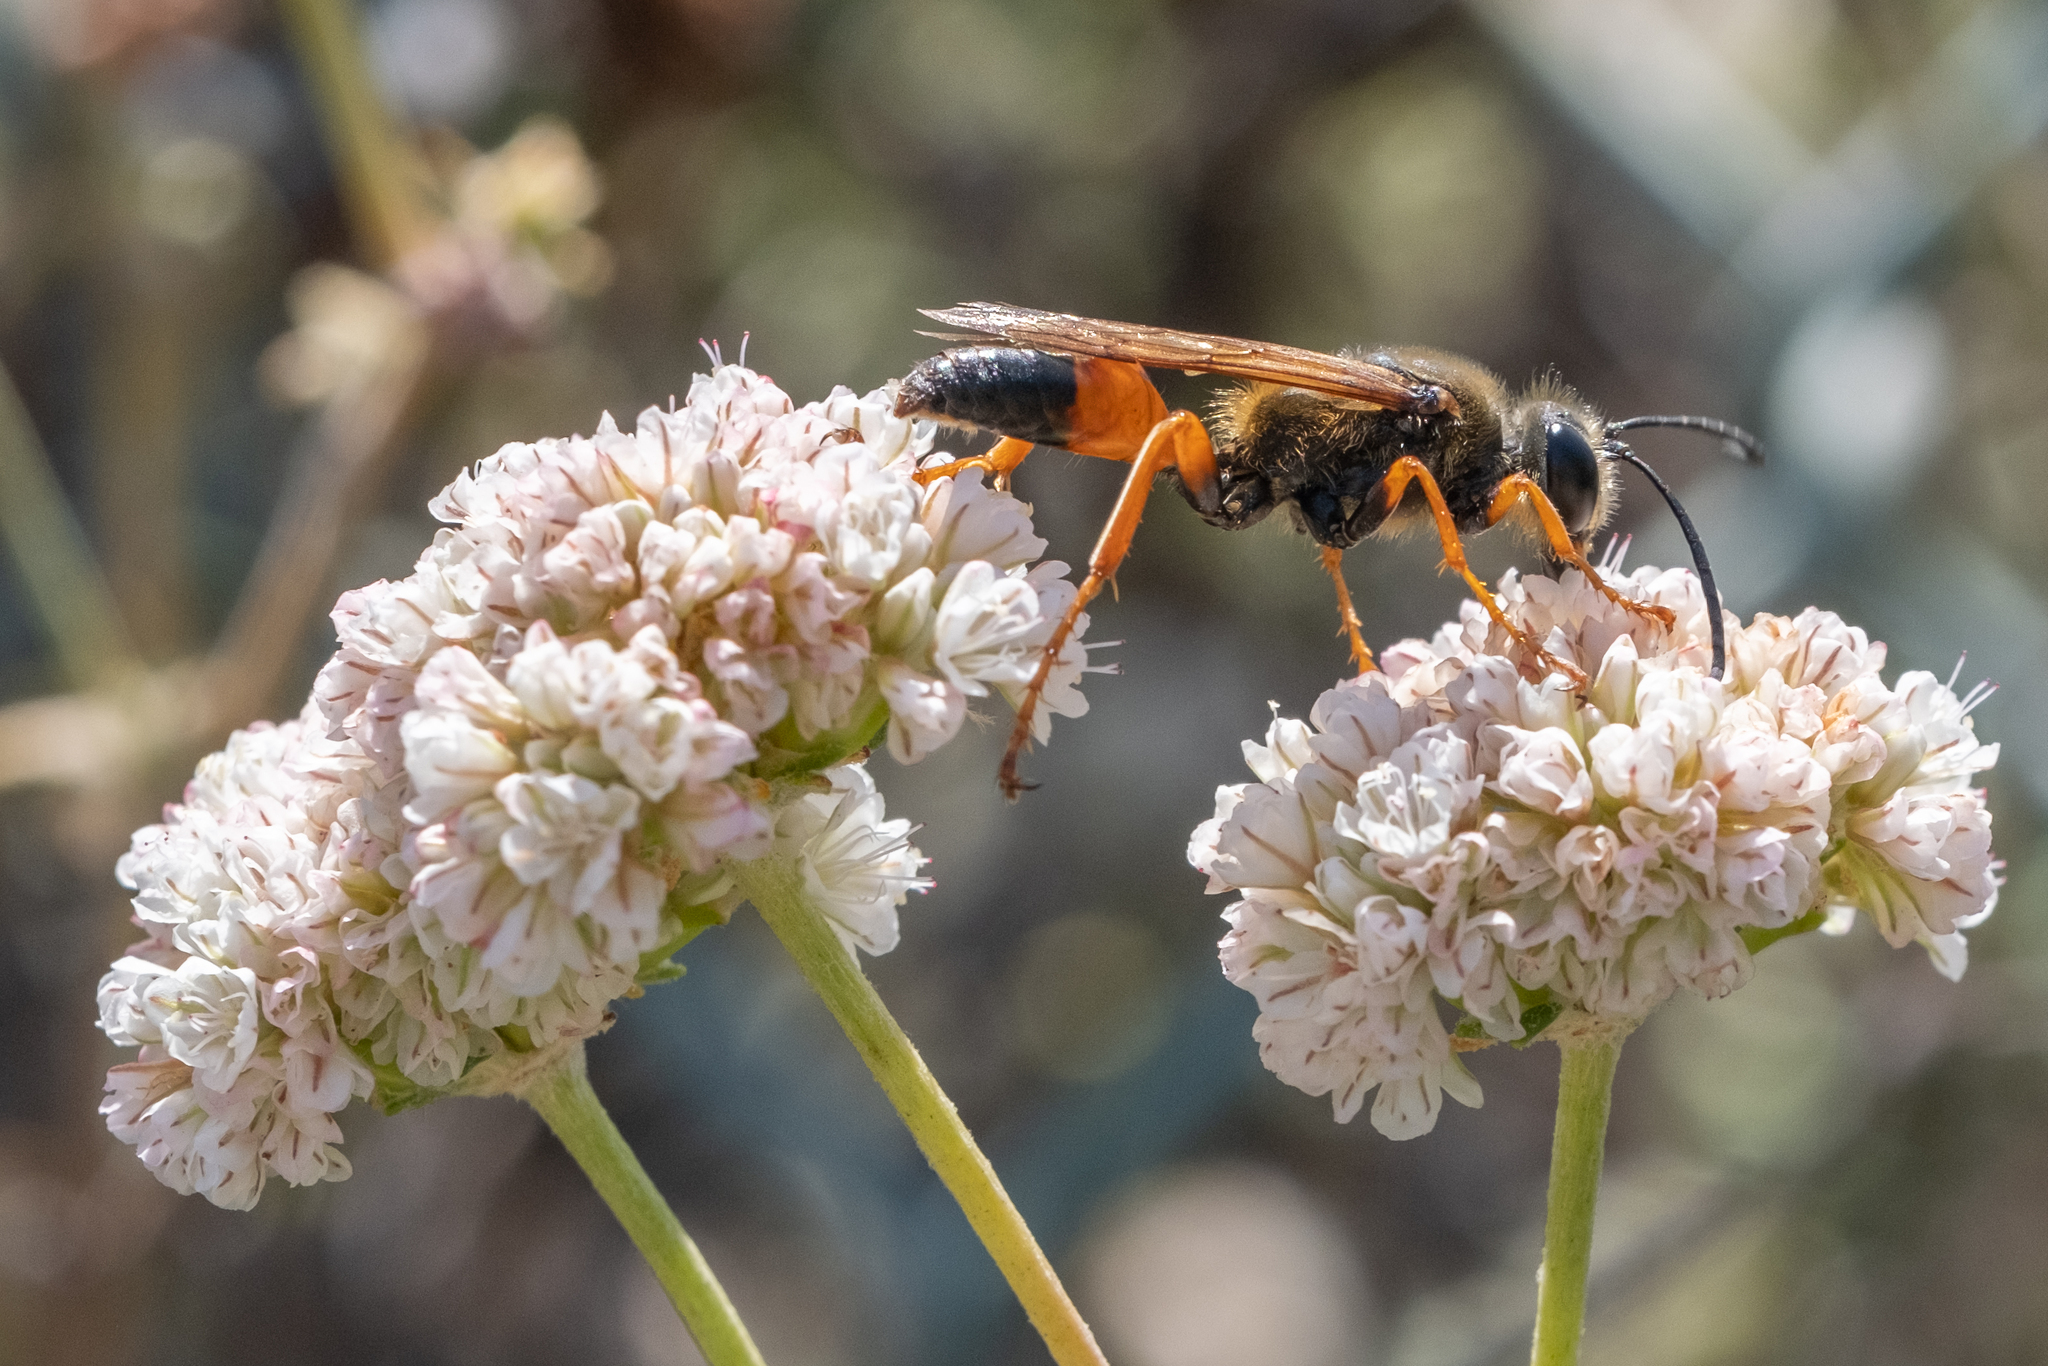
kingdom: Animalia
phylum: Arthropoda
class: Insecta
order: Hymenoptera
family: Sphecidae
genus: Sphex
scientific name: Sphex ichneumoneus
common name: Great golden digger wasp
